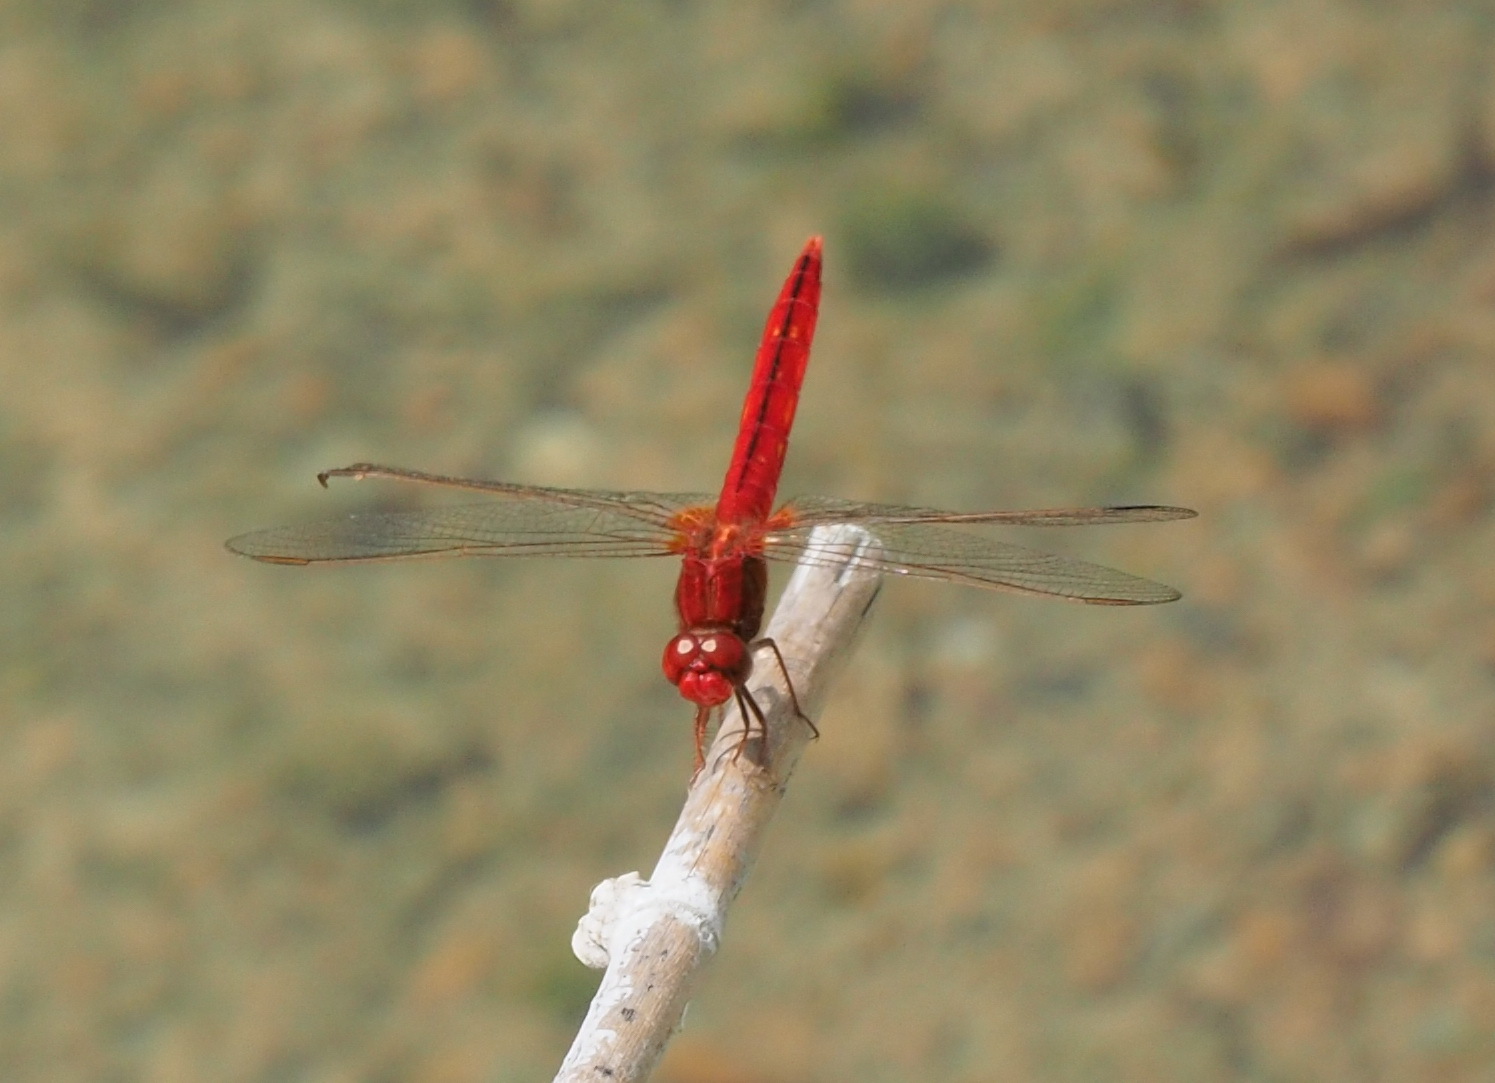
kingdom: Animalia
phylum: Arthropoda
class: Insecta
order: Odonata
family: Libellulidae
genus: Crocothemis
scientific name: Crocothemis servilia
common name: Scarlet skimmer
